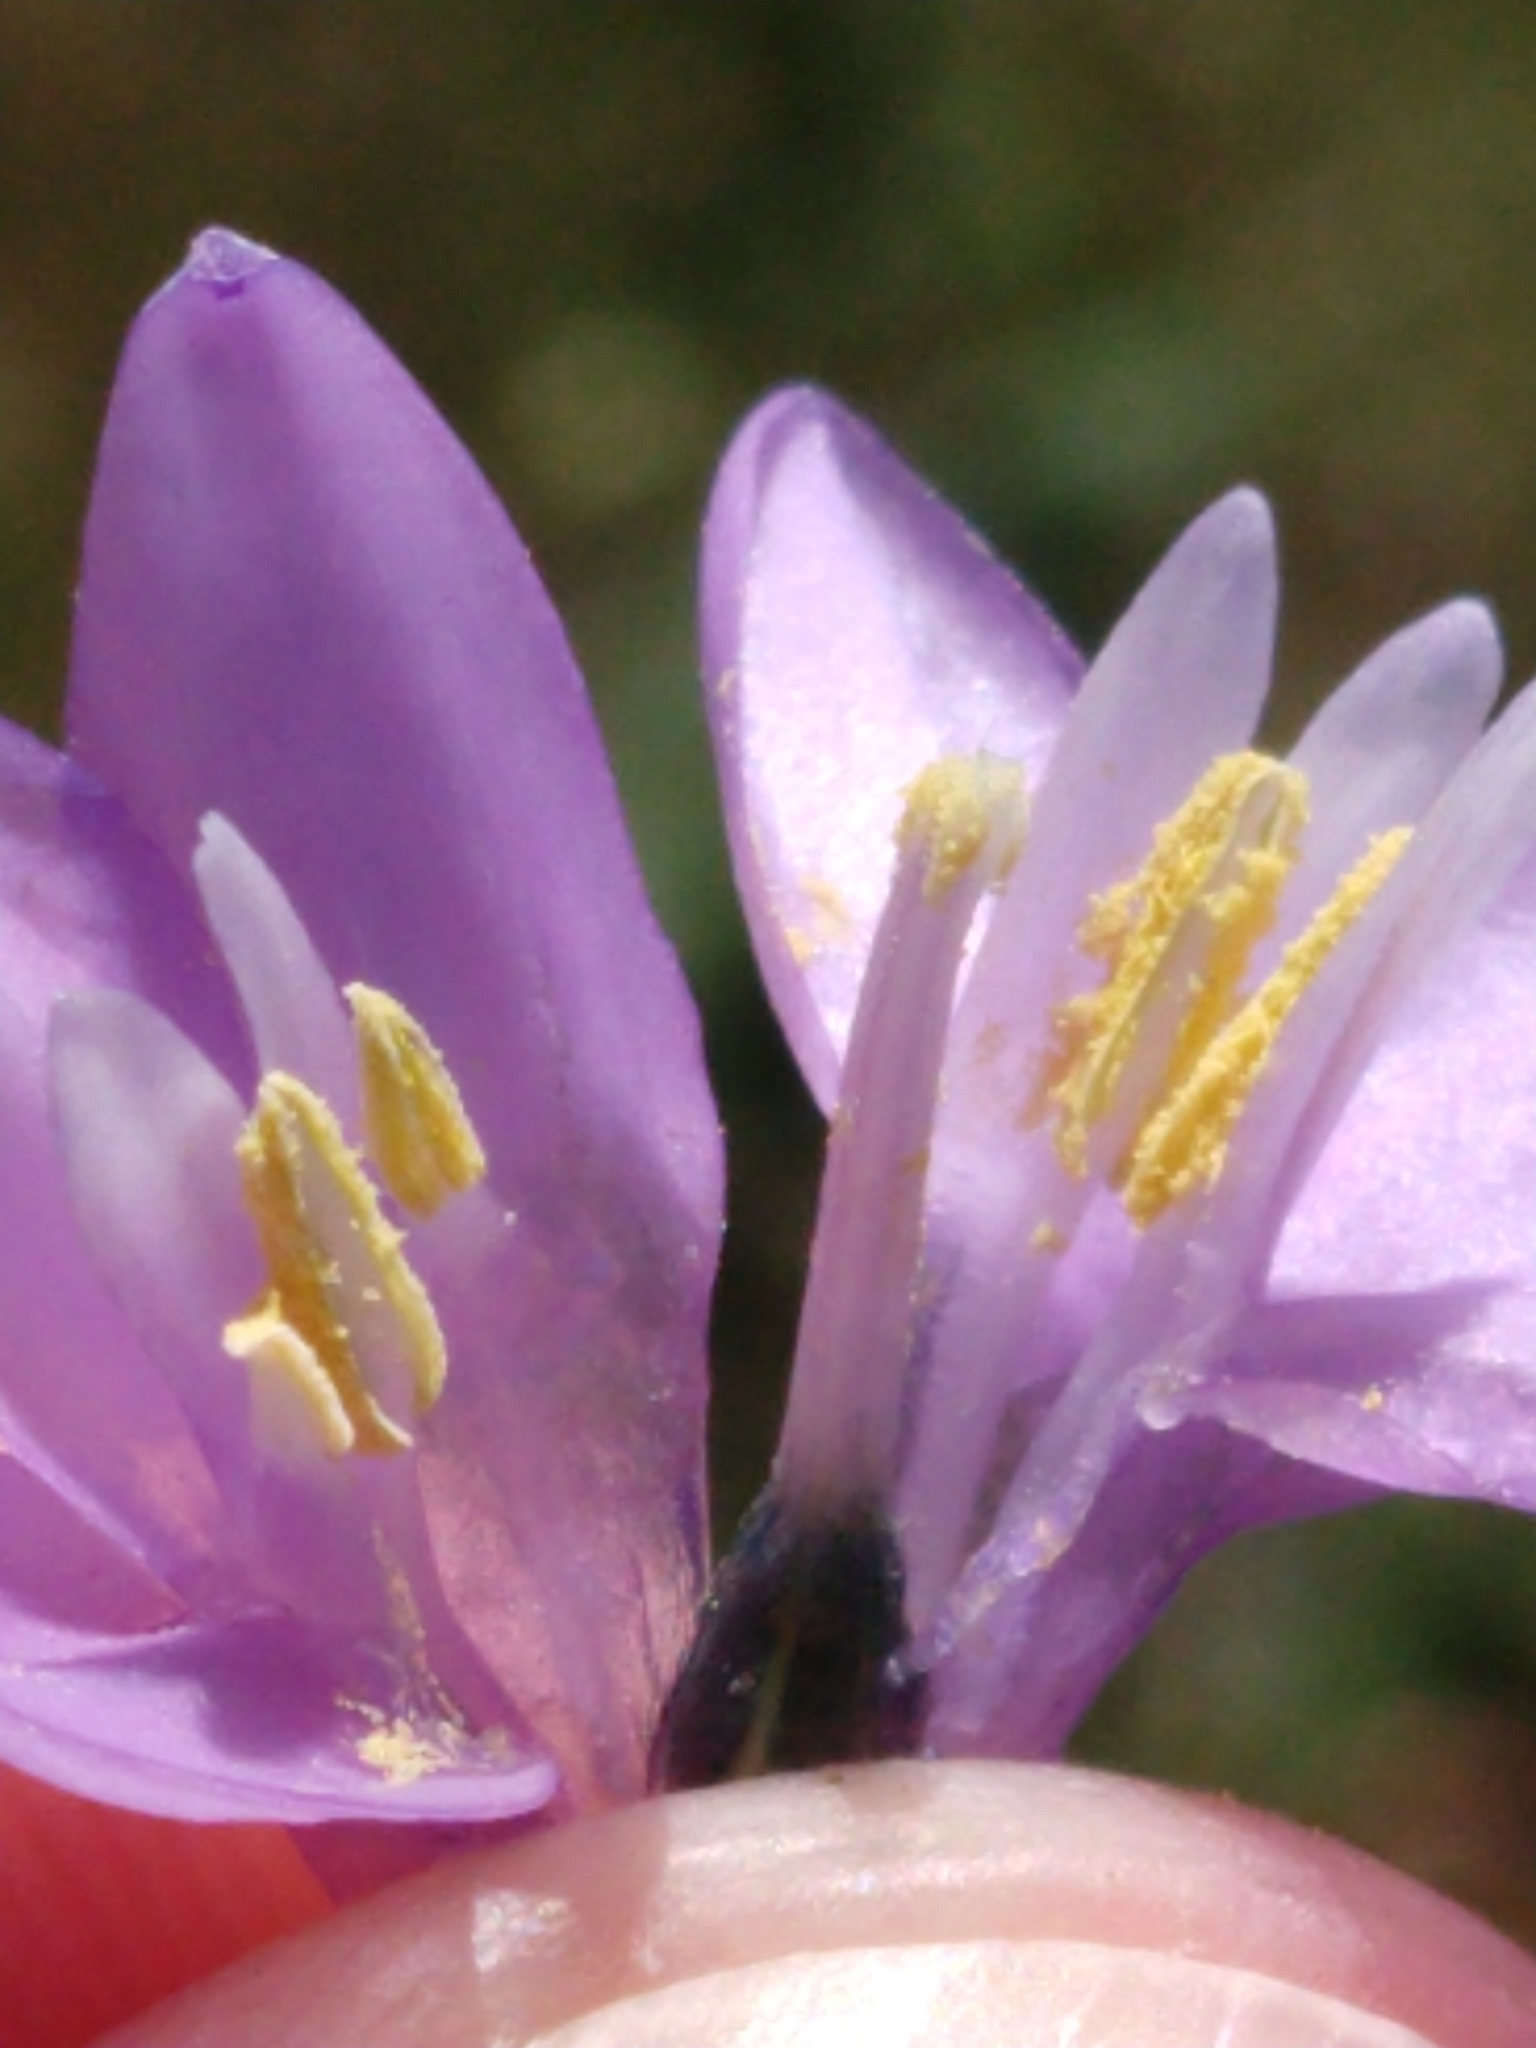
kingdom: Plantae
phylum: Tracheophyta
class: Liliopsida
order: Asparagales
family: Asparagaceae
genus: Dipterostemon
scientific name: Dipterostemon capitatus
